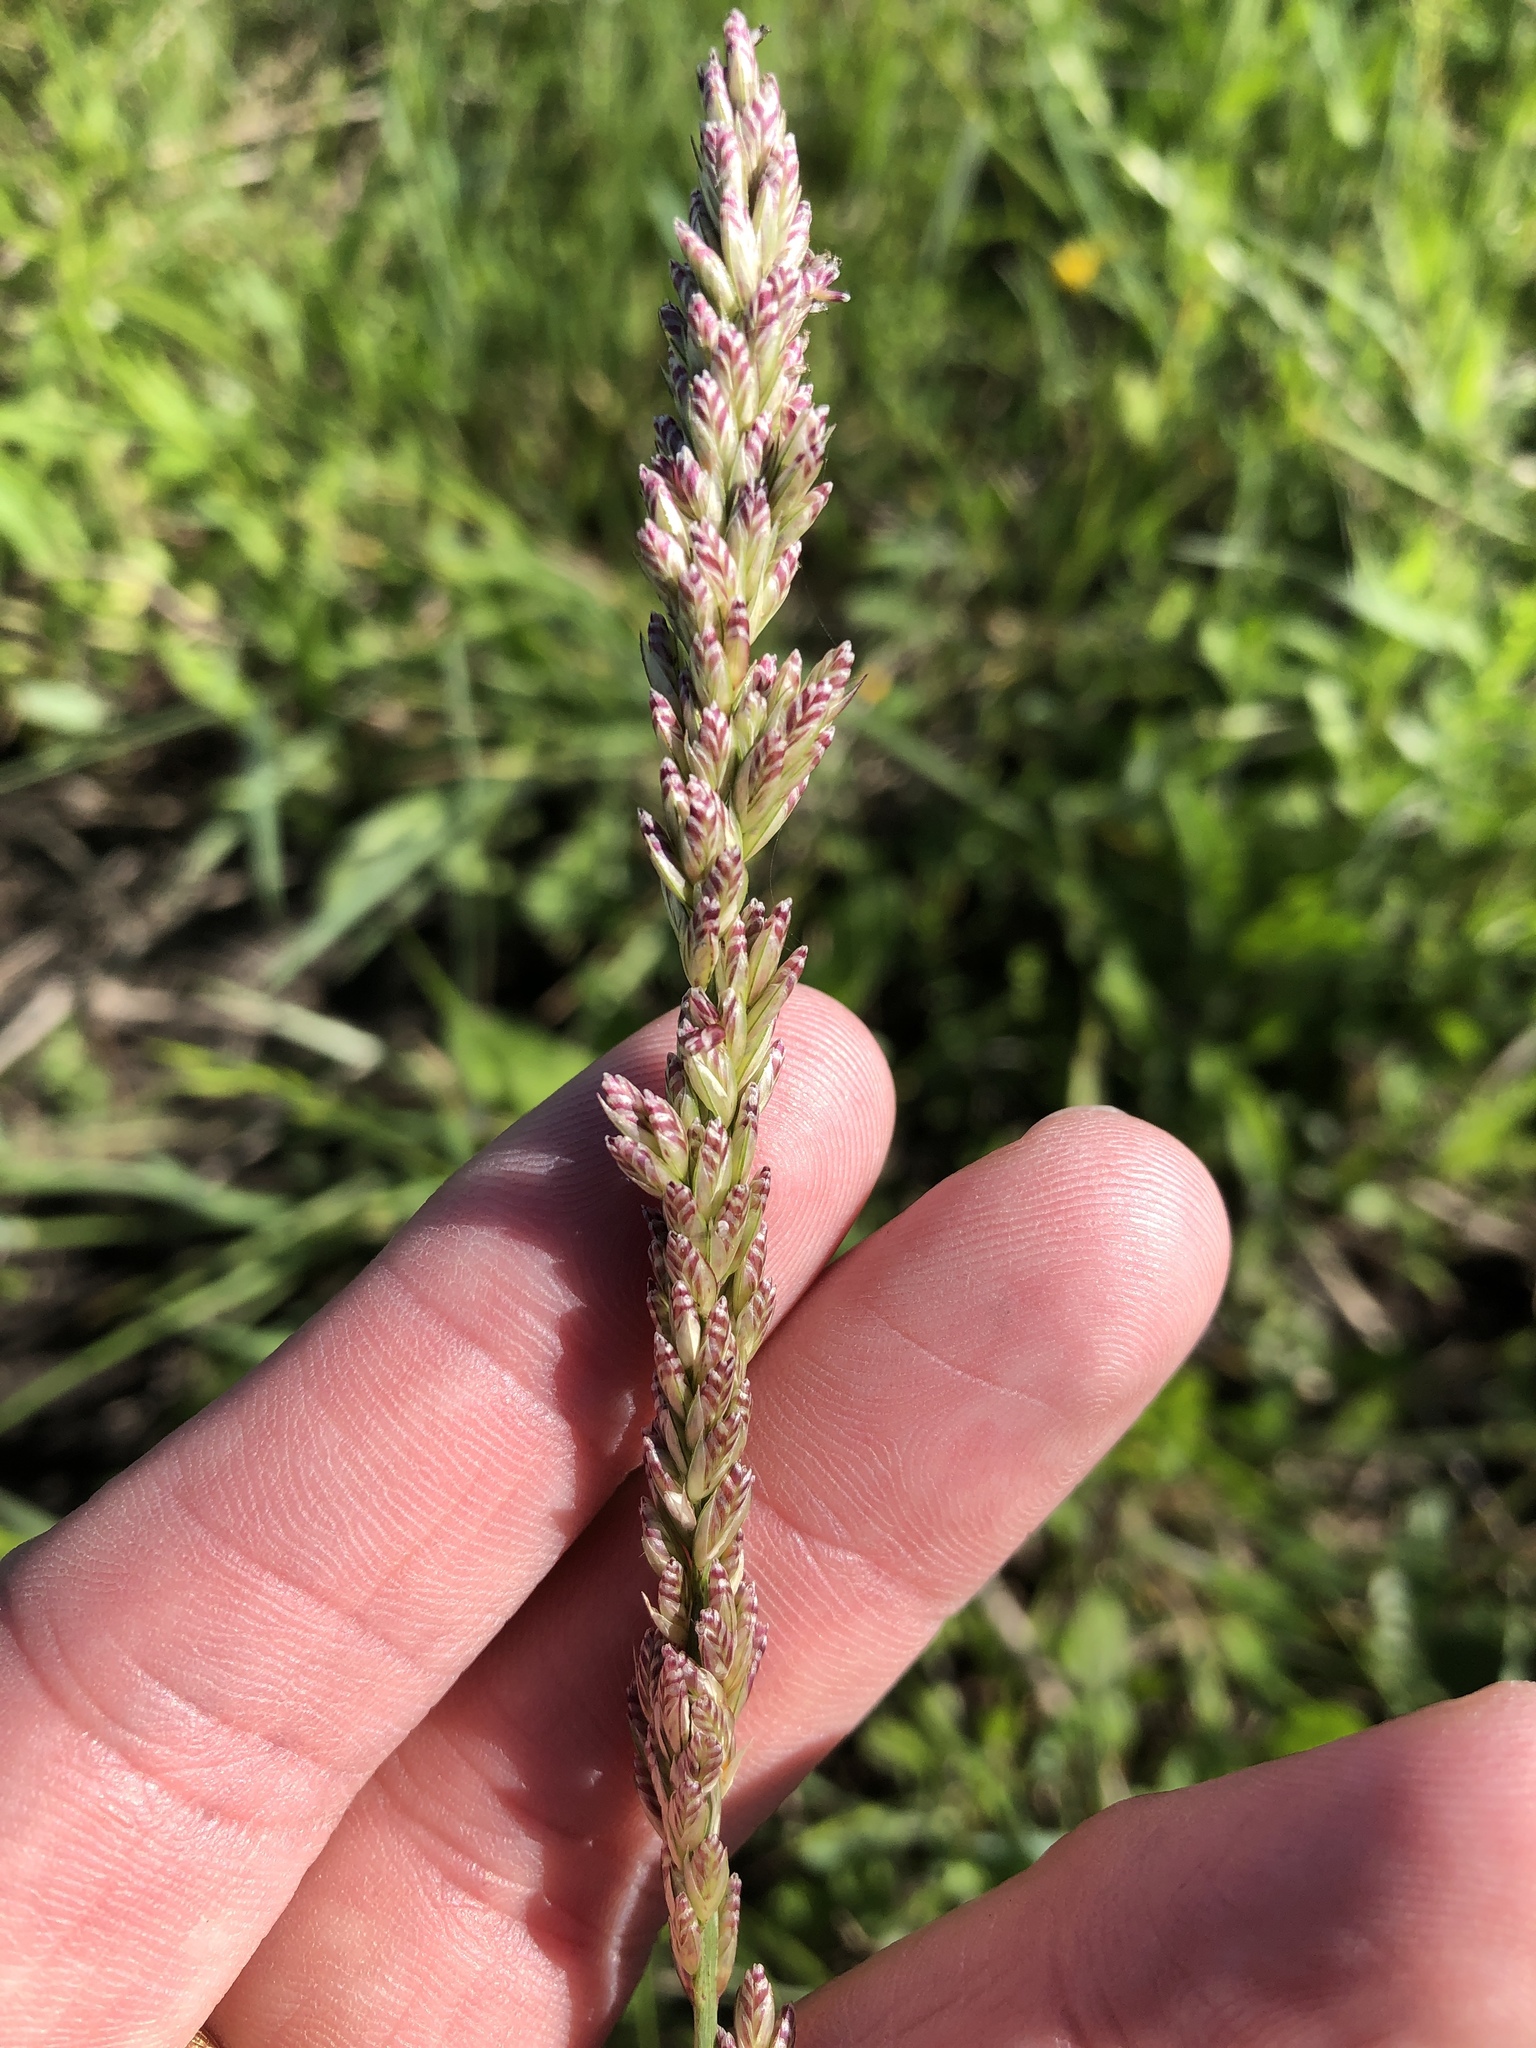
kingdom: Plantae
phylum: Tracheophyta
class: Liliopsida
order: Poales
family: Poaceae
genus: Tridens
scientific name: Tridens albescens
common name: White tridens
